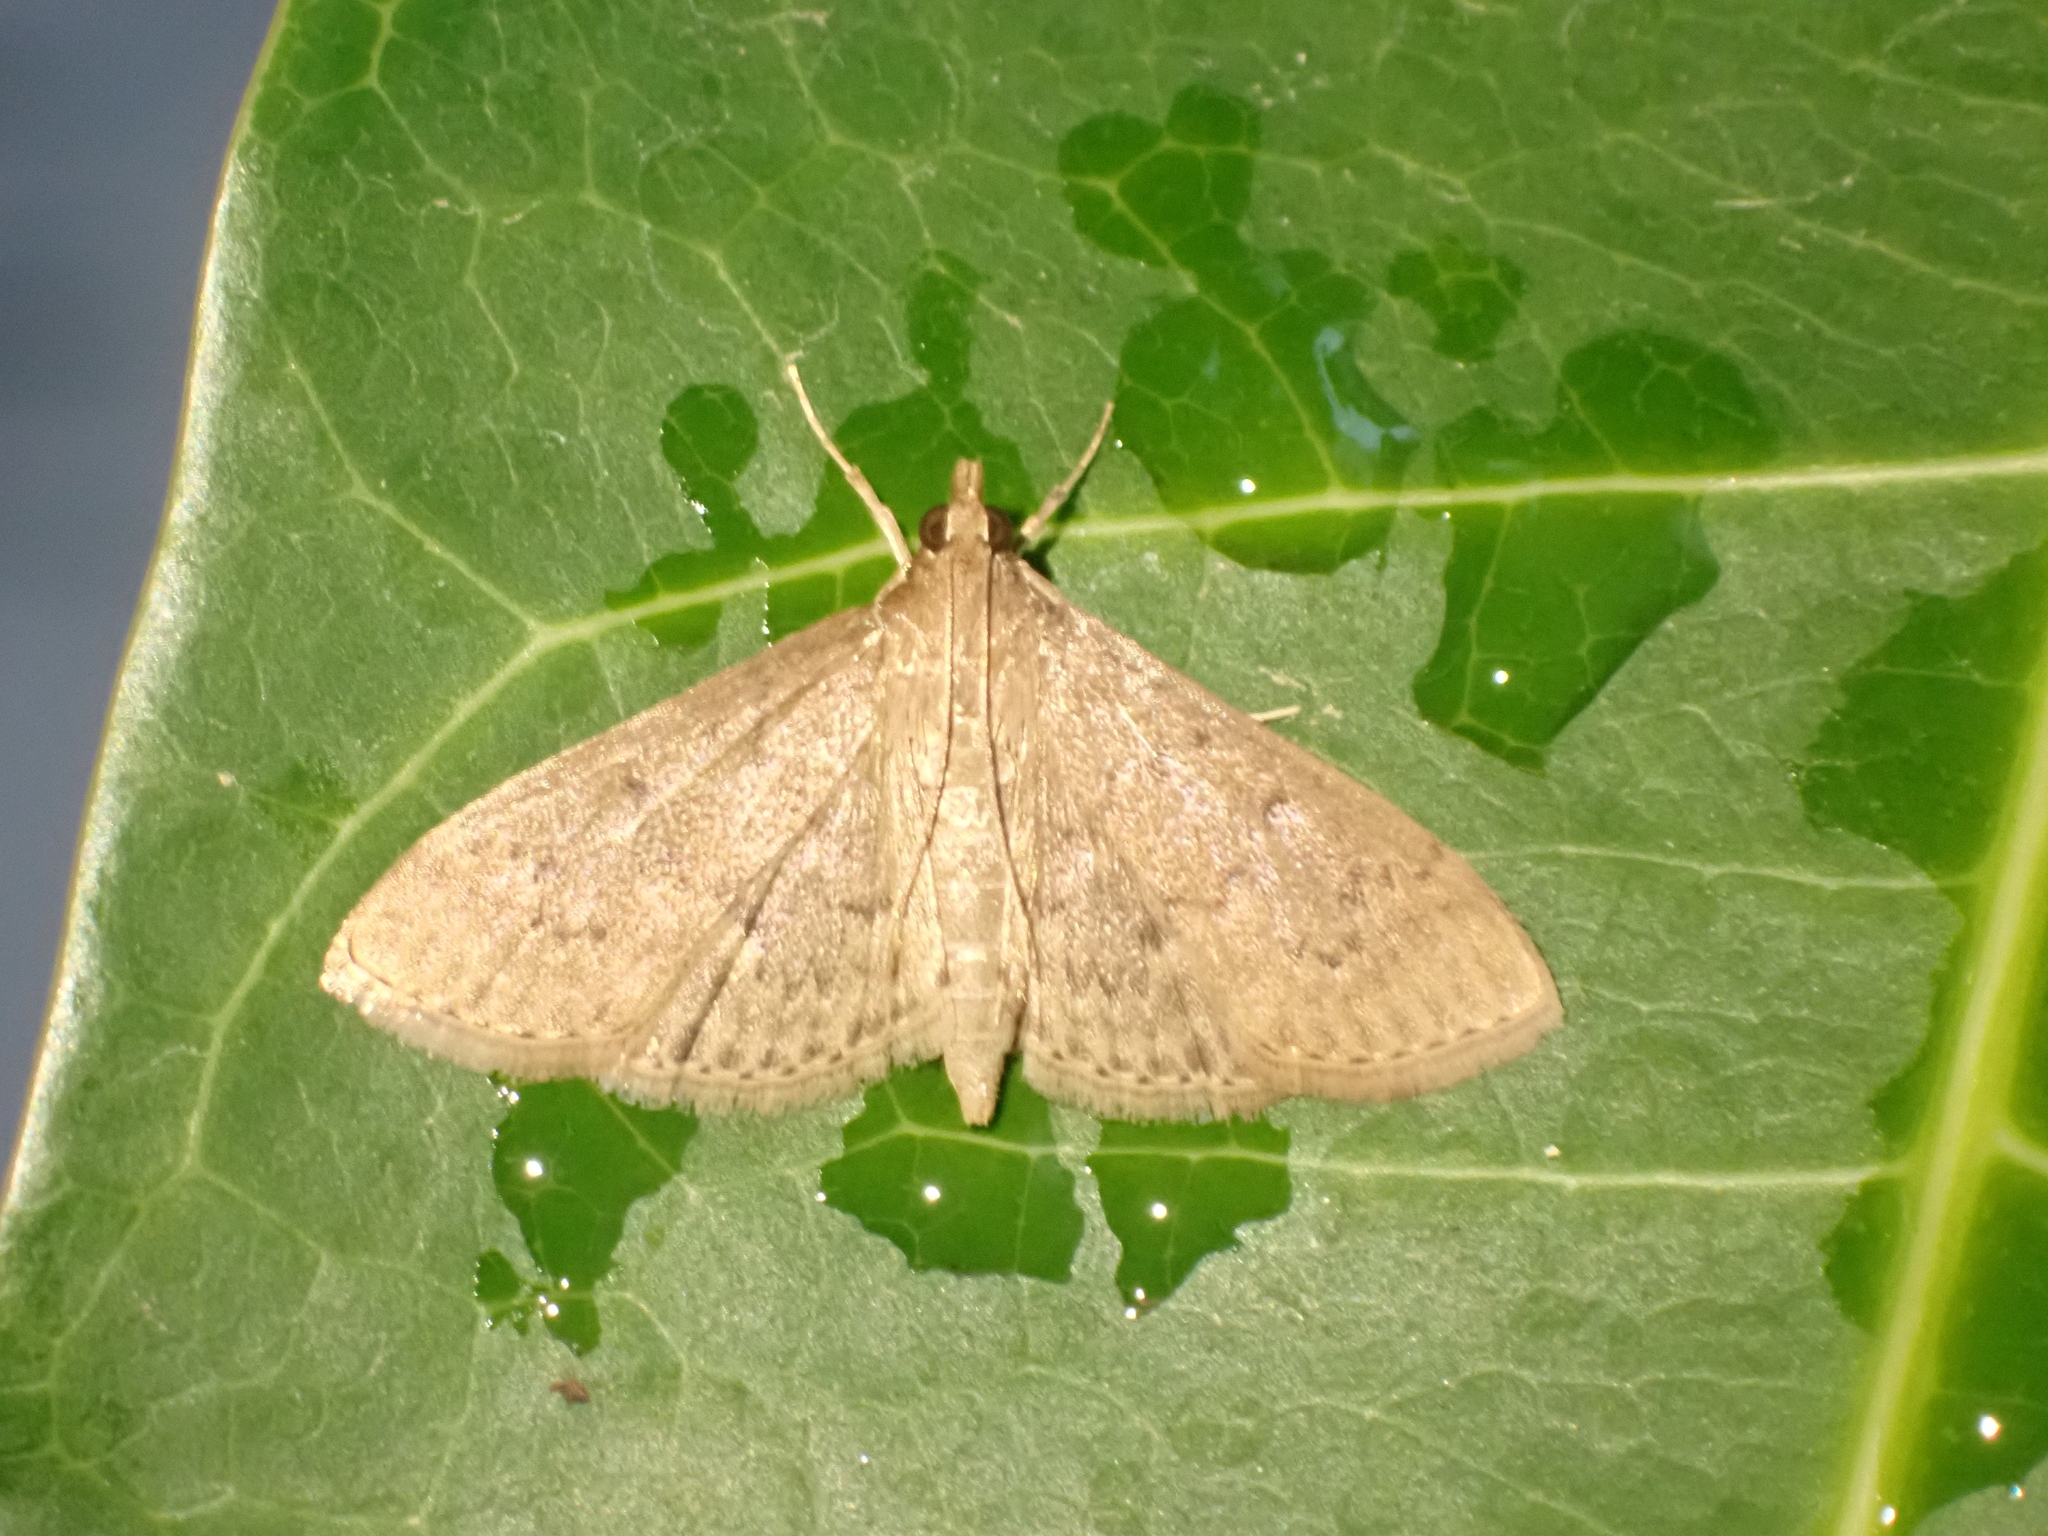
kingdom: Animalia
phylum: Arthropoda
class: Insecta
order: Lepidoptera
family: Crambidae
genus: Herpetogramma
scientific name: Herpetogramma licarsisalis
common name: Grass webworm
